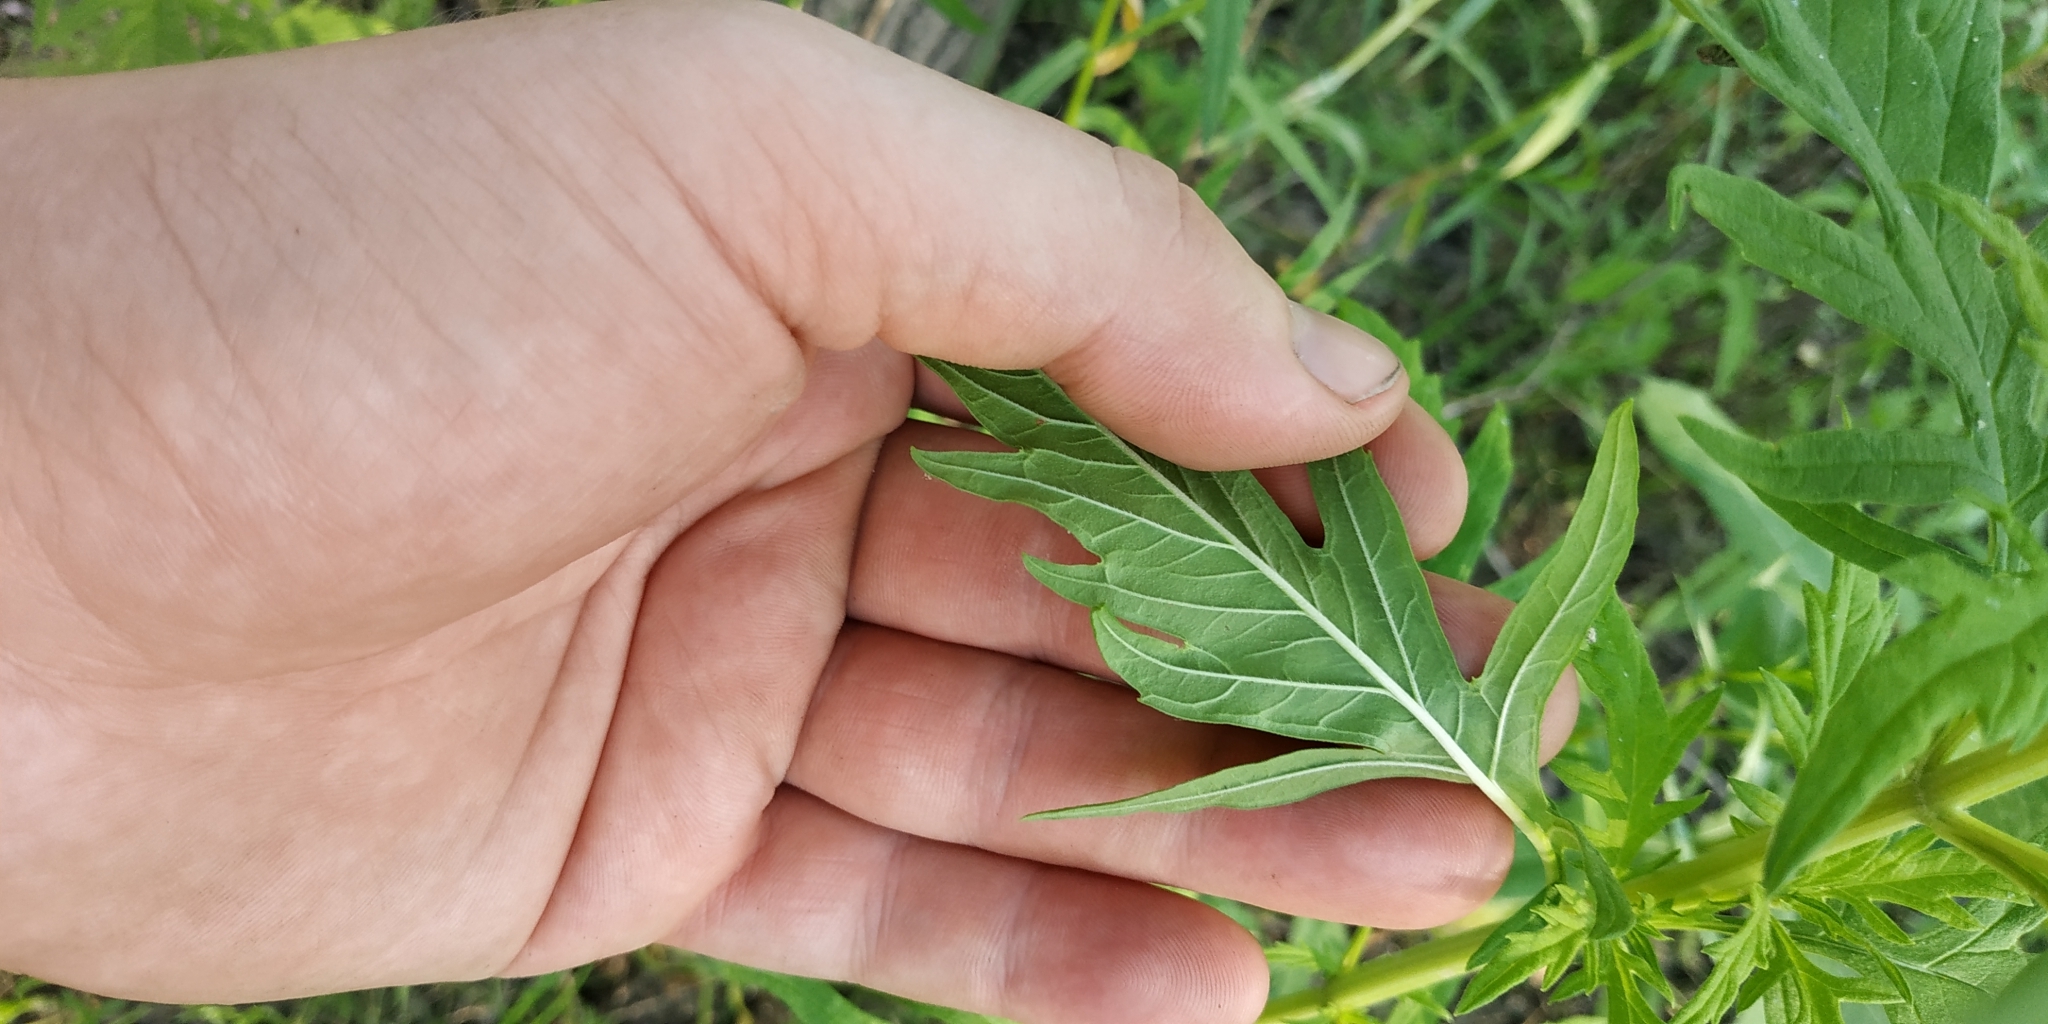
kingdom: Plantae
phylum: Tracheophyta
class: Magnoliopsida
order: Lamiales
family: Lamiaceae
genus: Lycopus
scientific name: Lycopus exaltatus
